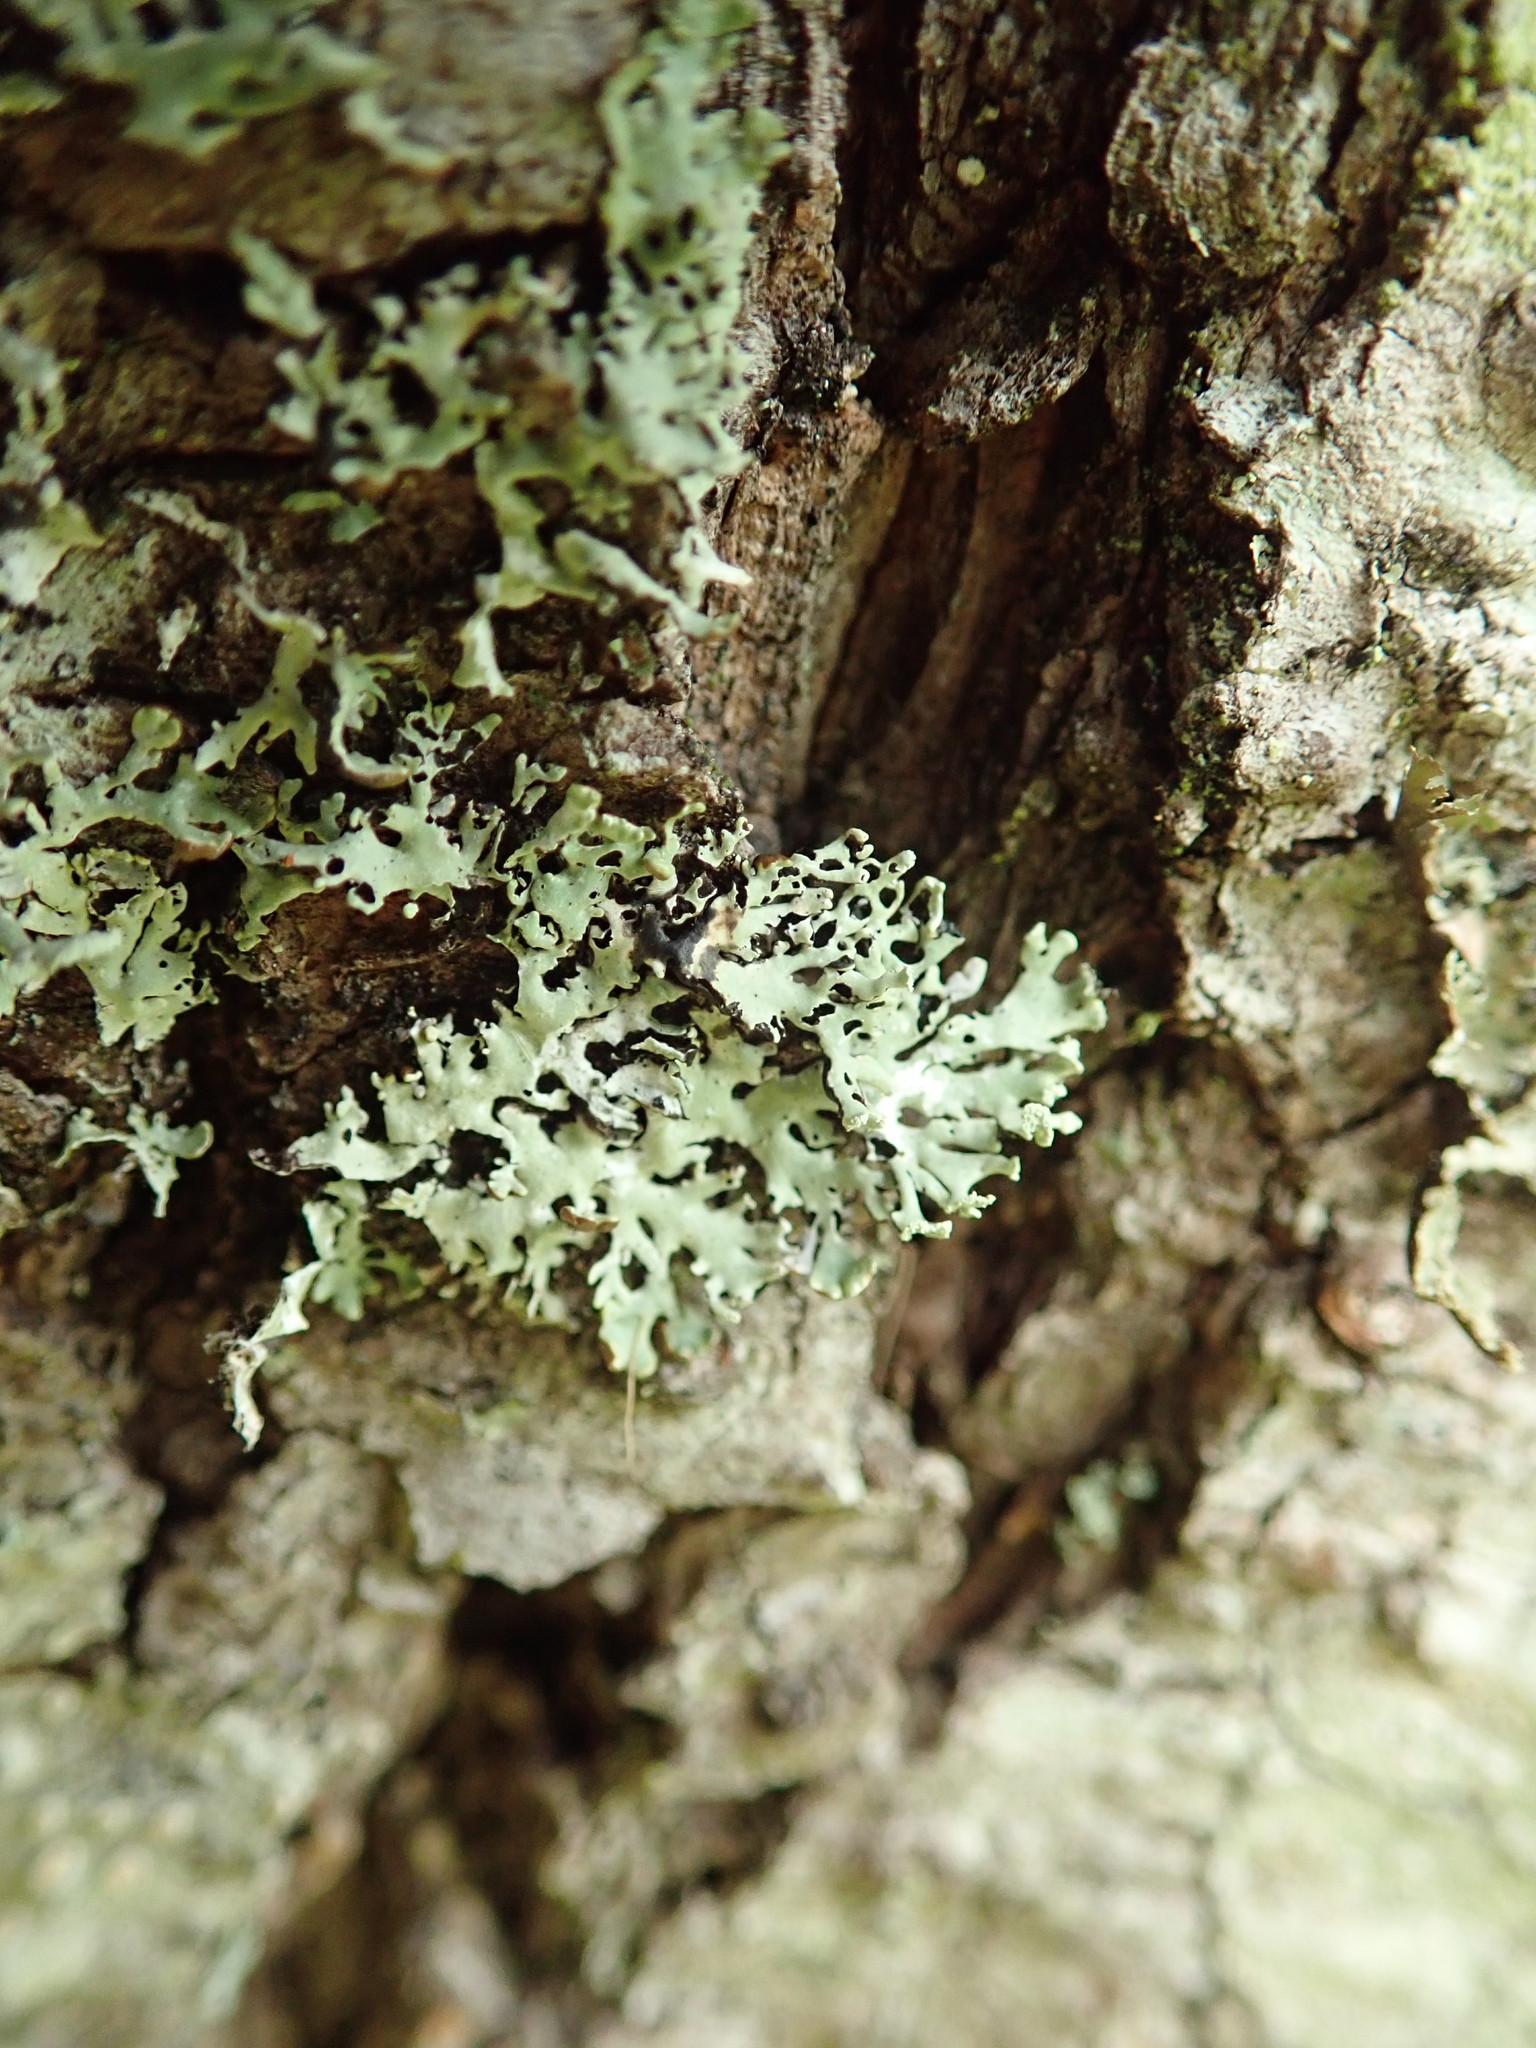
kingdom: Fungi
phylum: Ascomycota
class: Lecanoromycetes
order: Lecanorales
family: Parmeliaceae
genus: Hypogymnia
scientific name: Hypogymnia physodes
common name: Dark crottle
